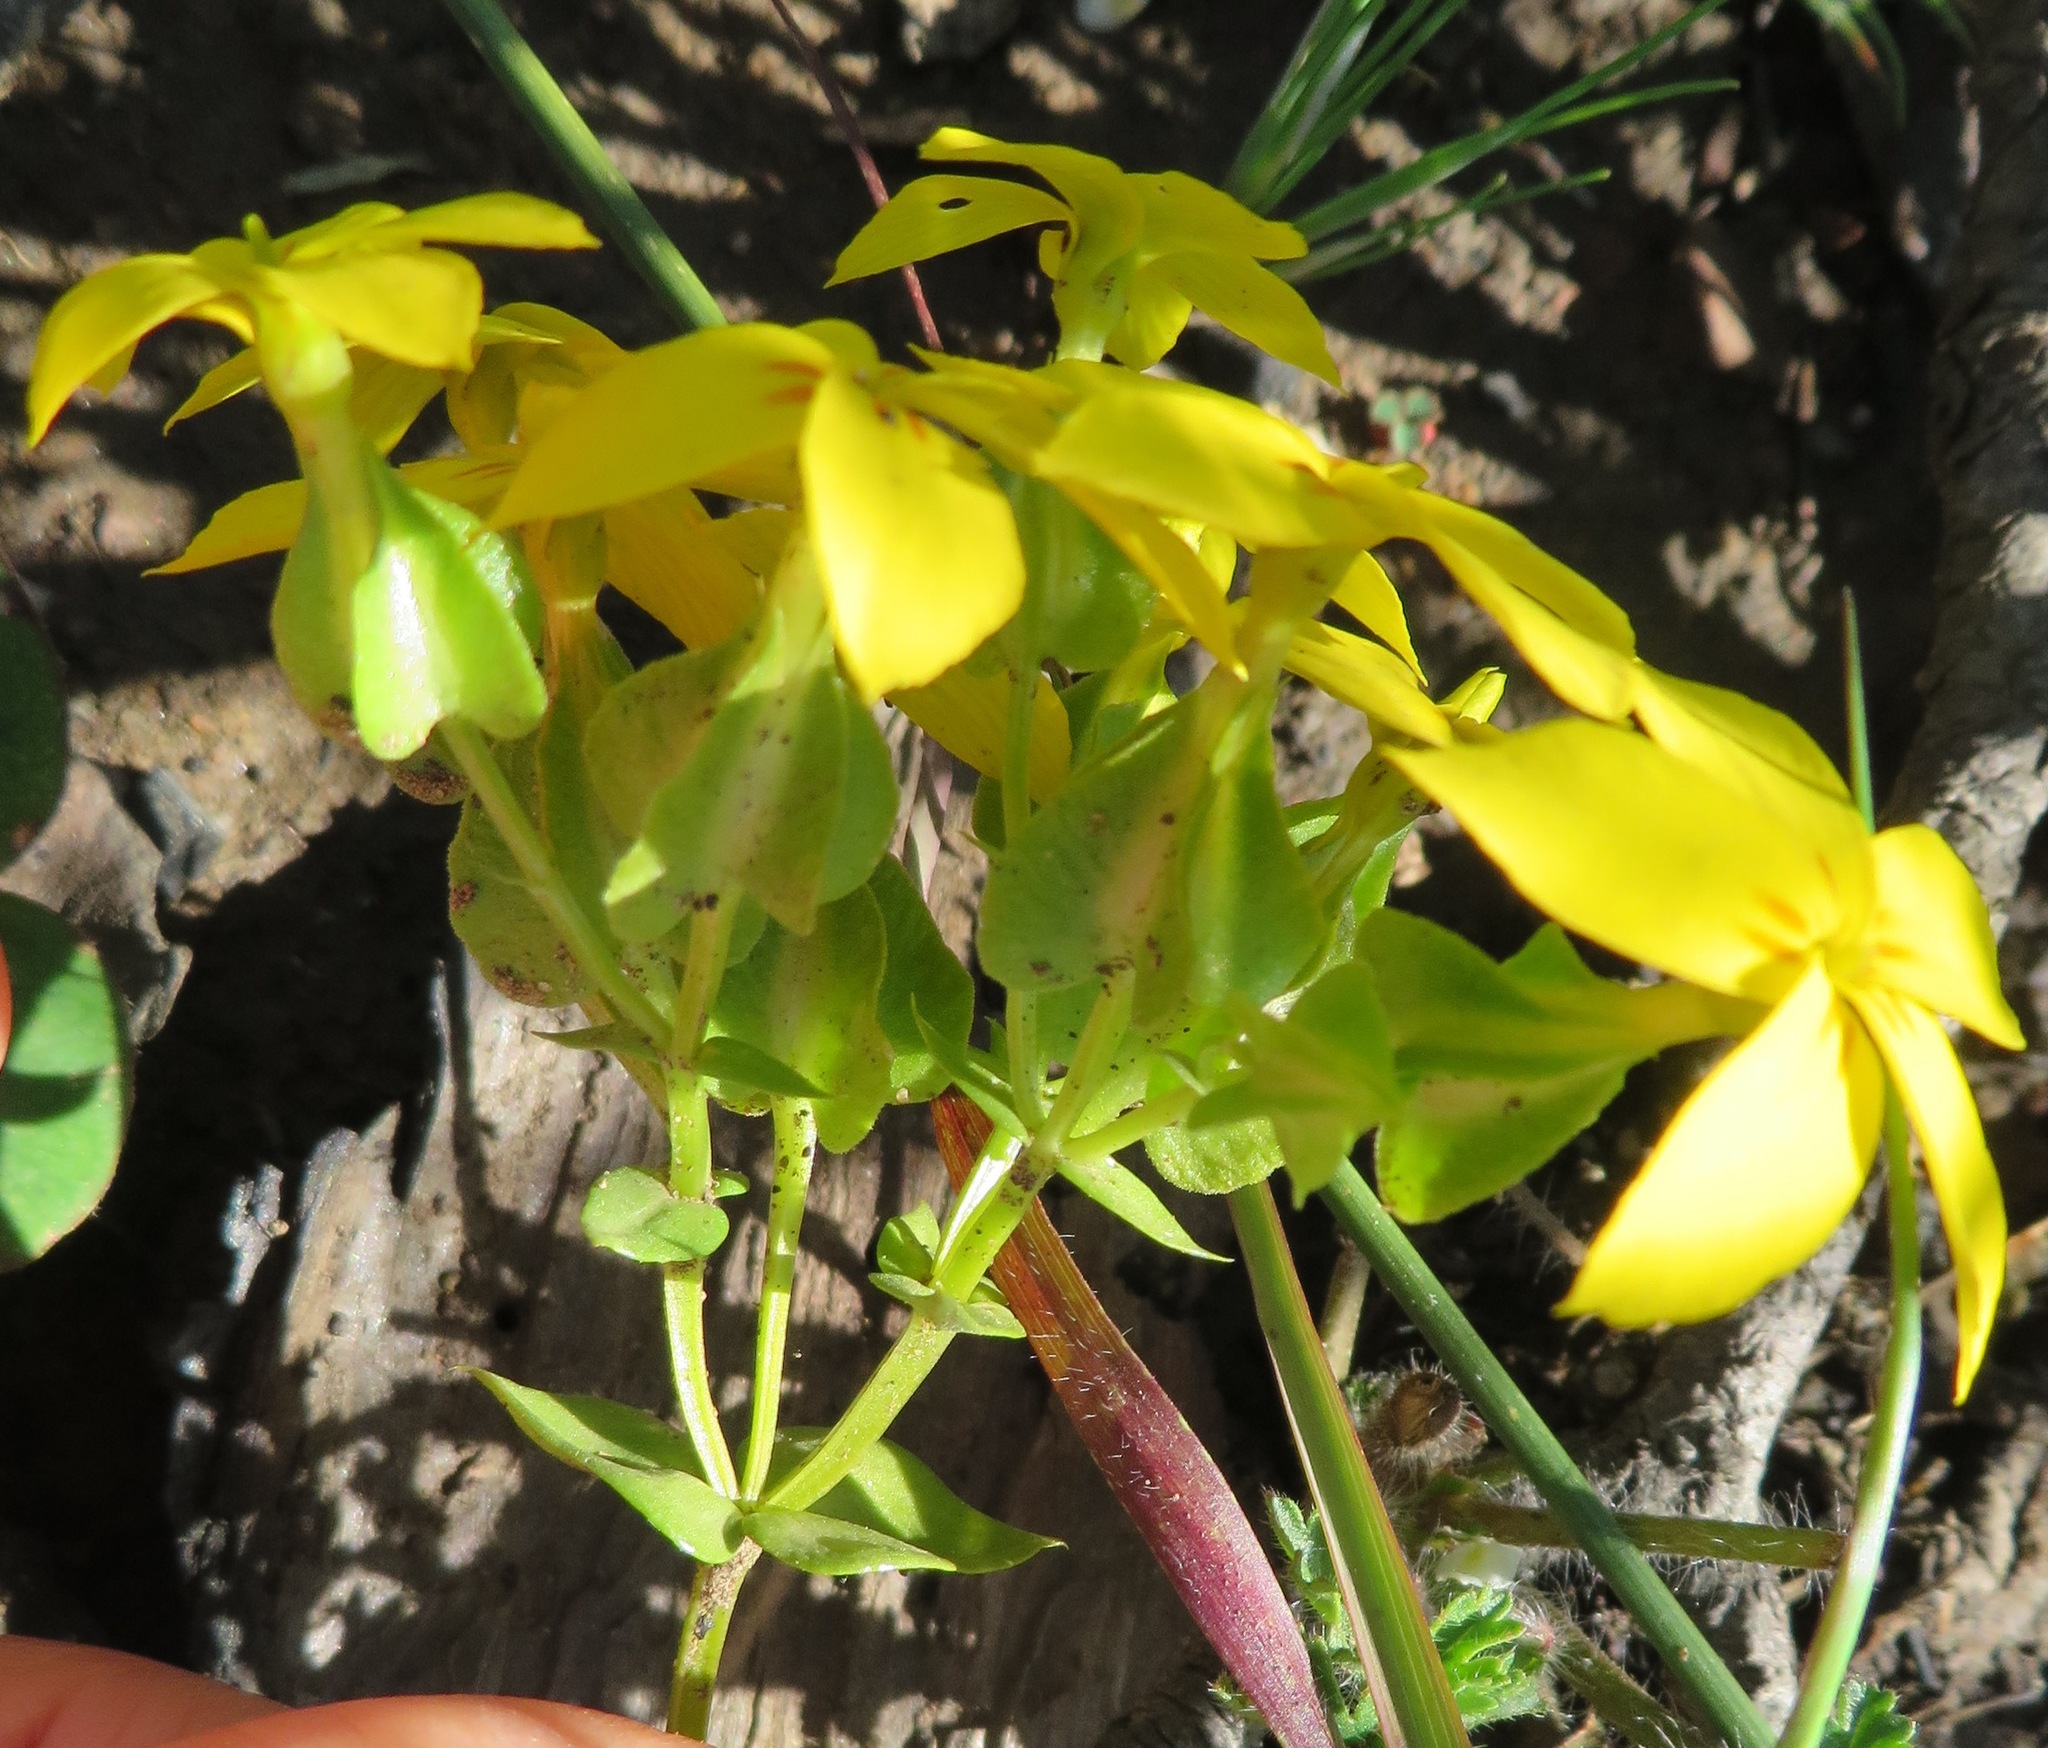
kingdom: Plantae
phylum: Tracheophyta
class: Magnoliopsida
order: Gentianales
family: Gentianaceae
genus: Sebaea
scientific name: Sebaea exacoides
